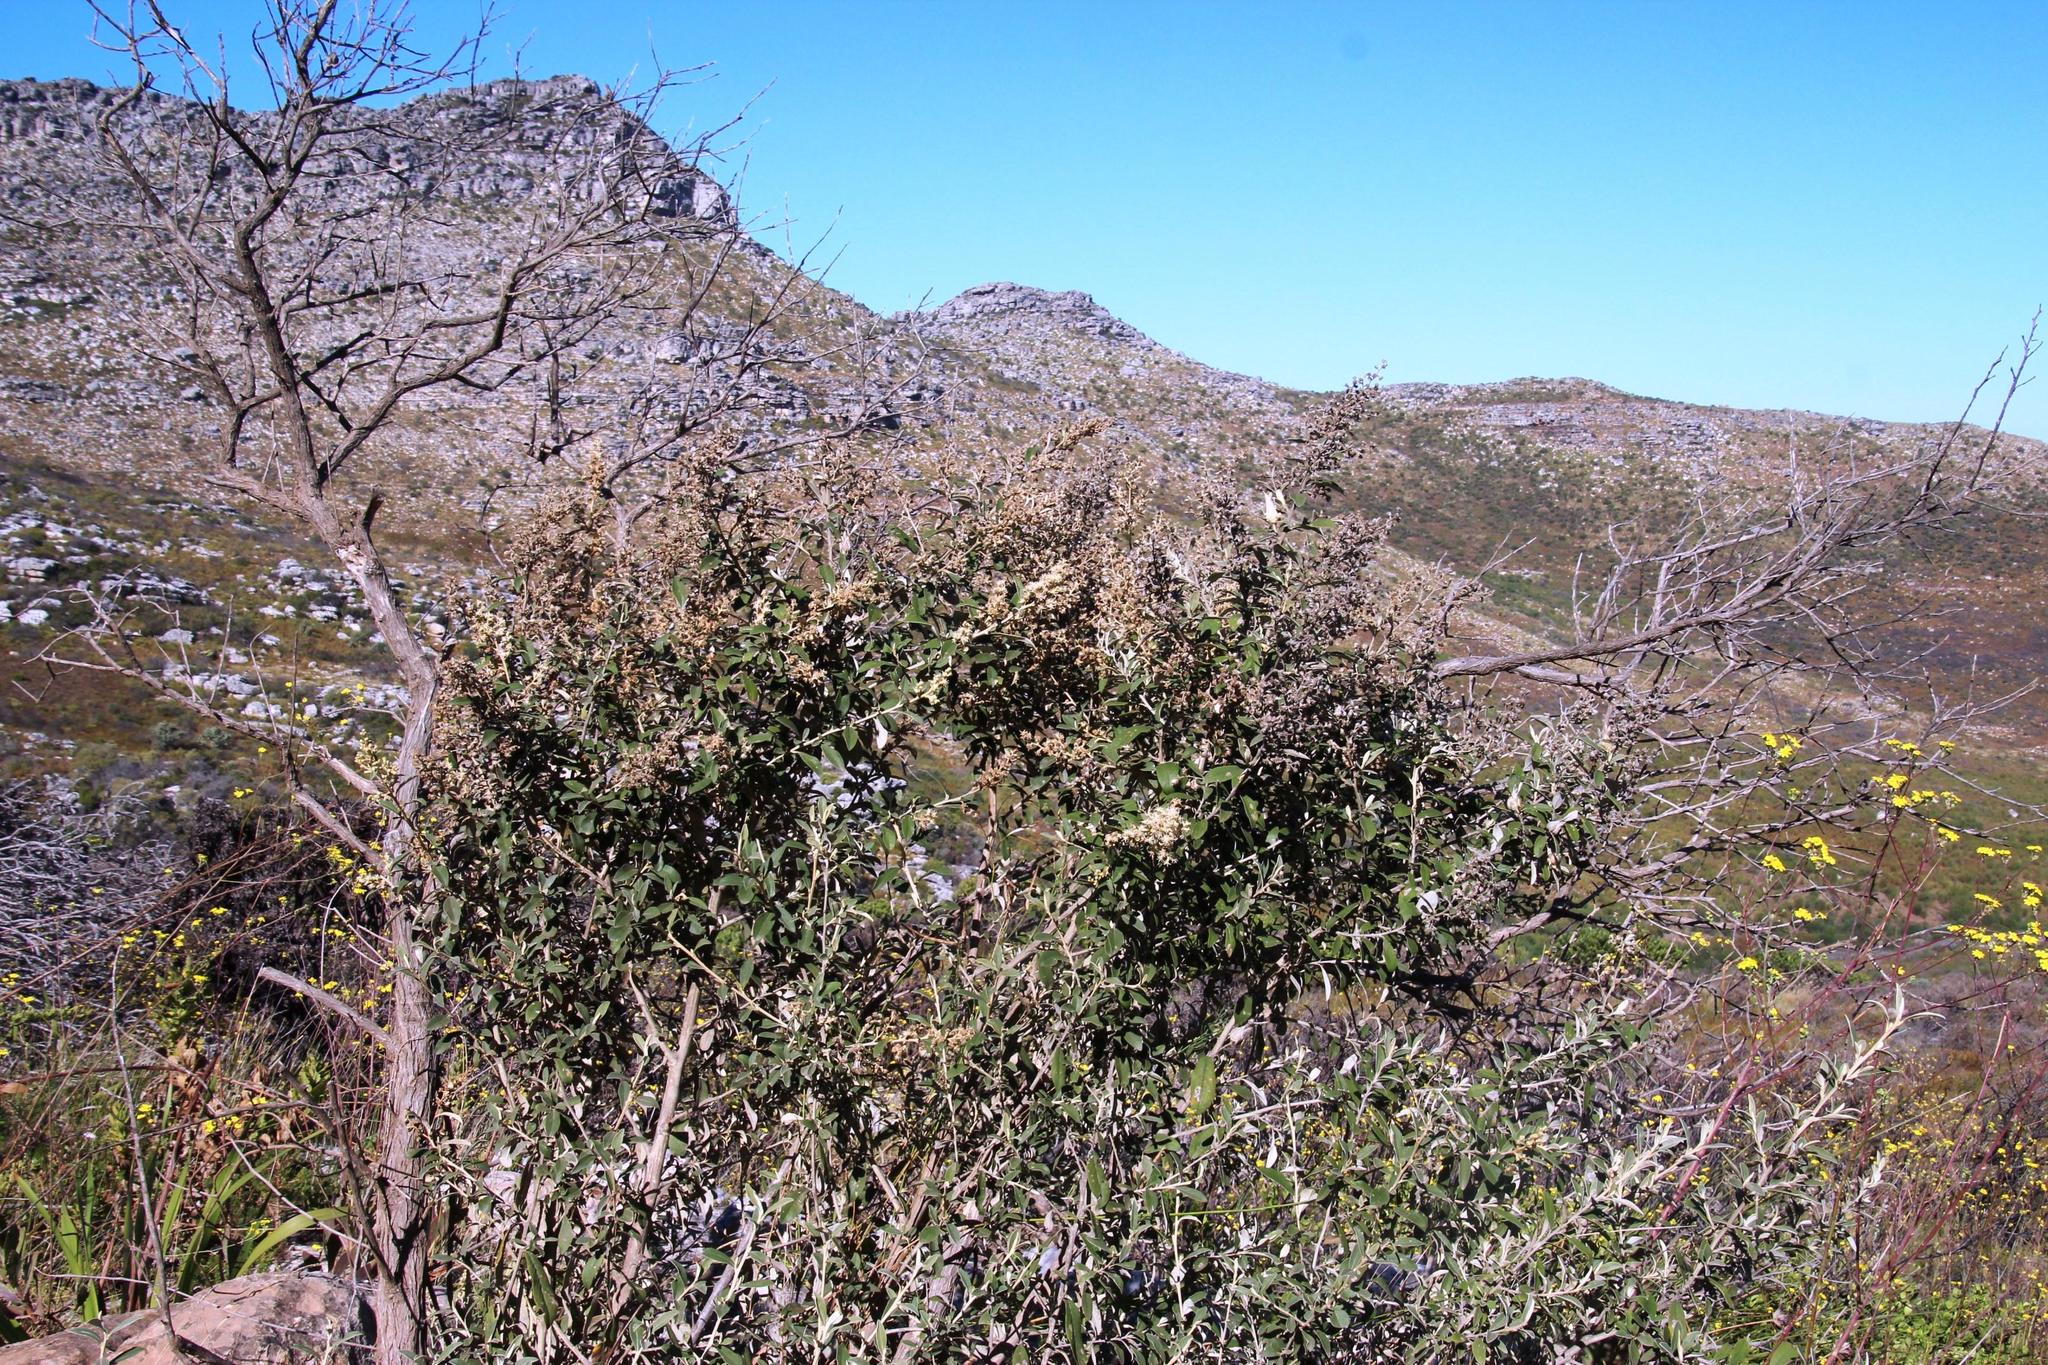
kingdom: Plantae
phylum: Tracheophyta
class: Magnoliopsida
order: Asterales
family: Asteraceae
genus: Tarchonanthus
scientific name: Tarchonanthus littoralis
